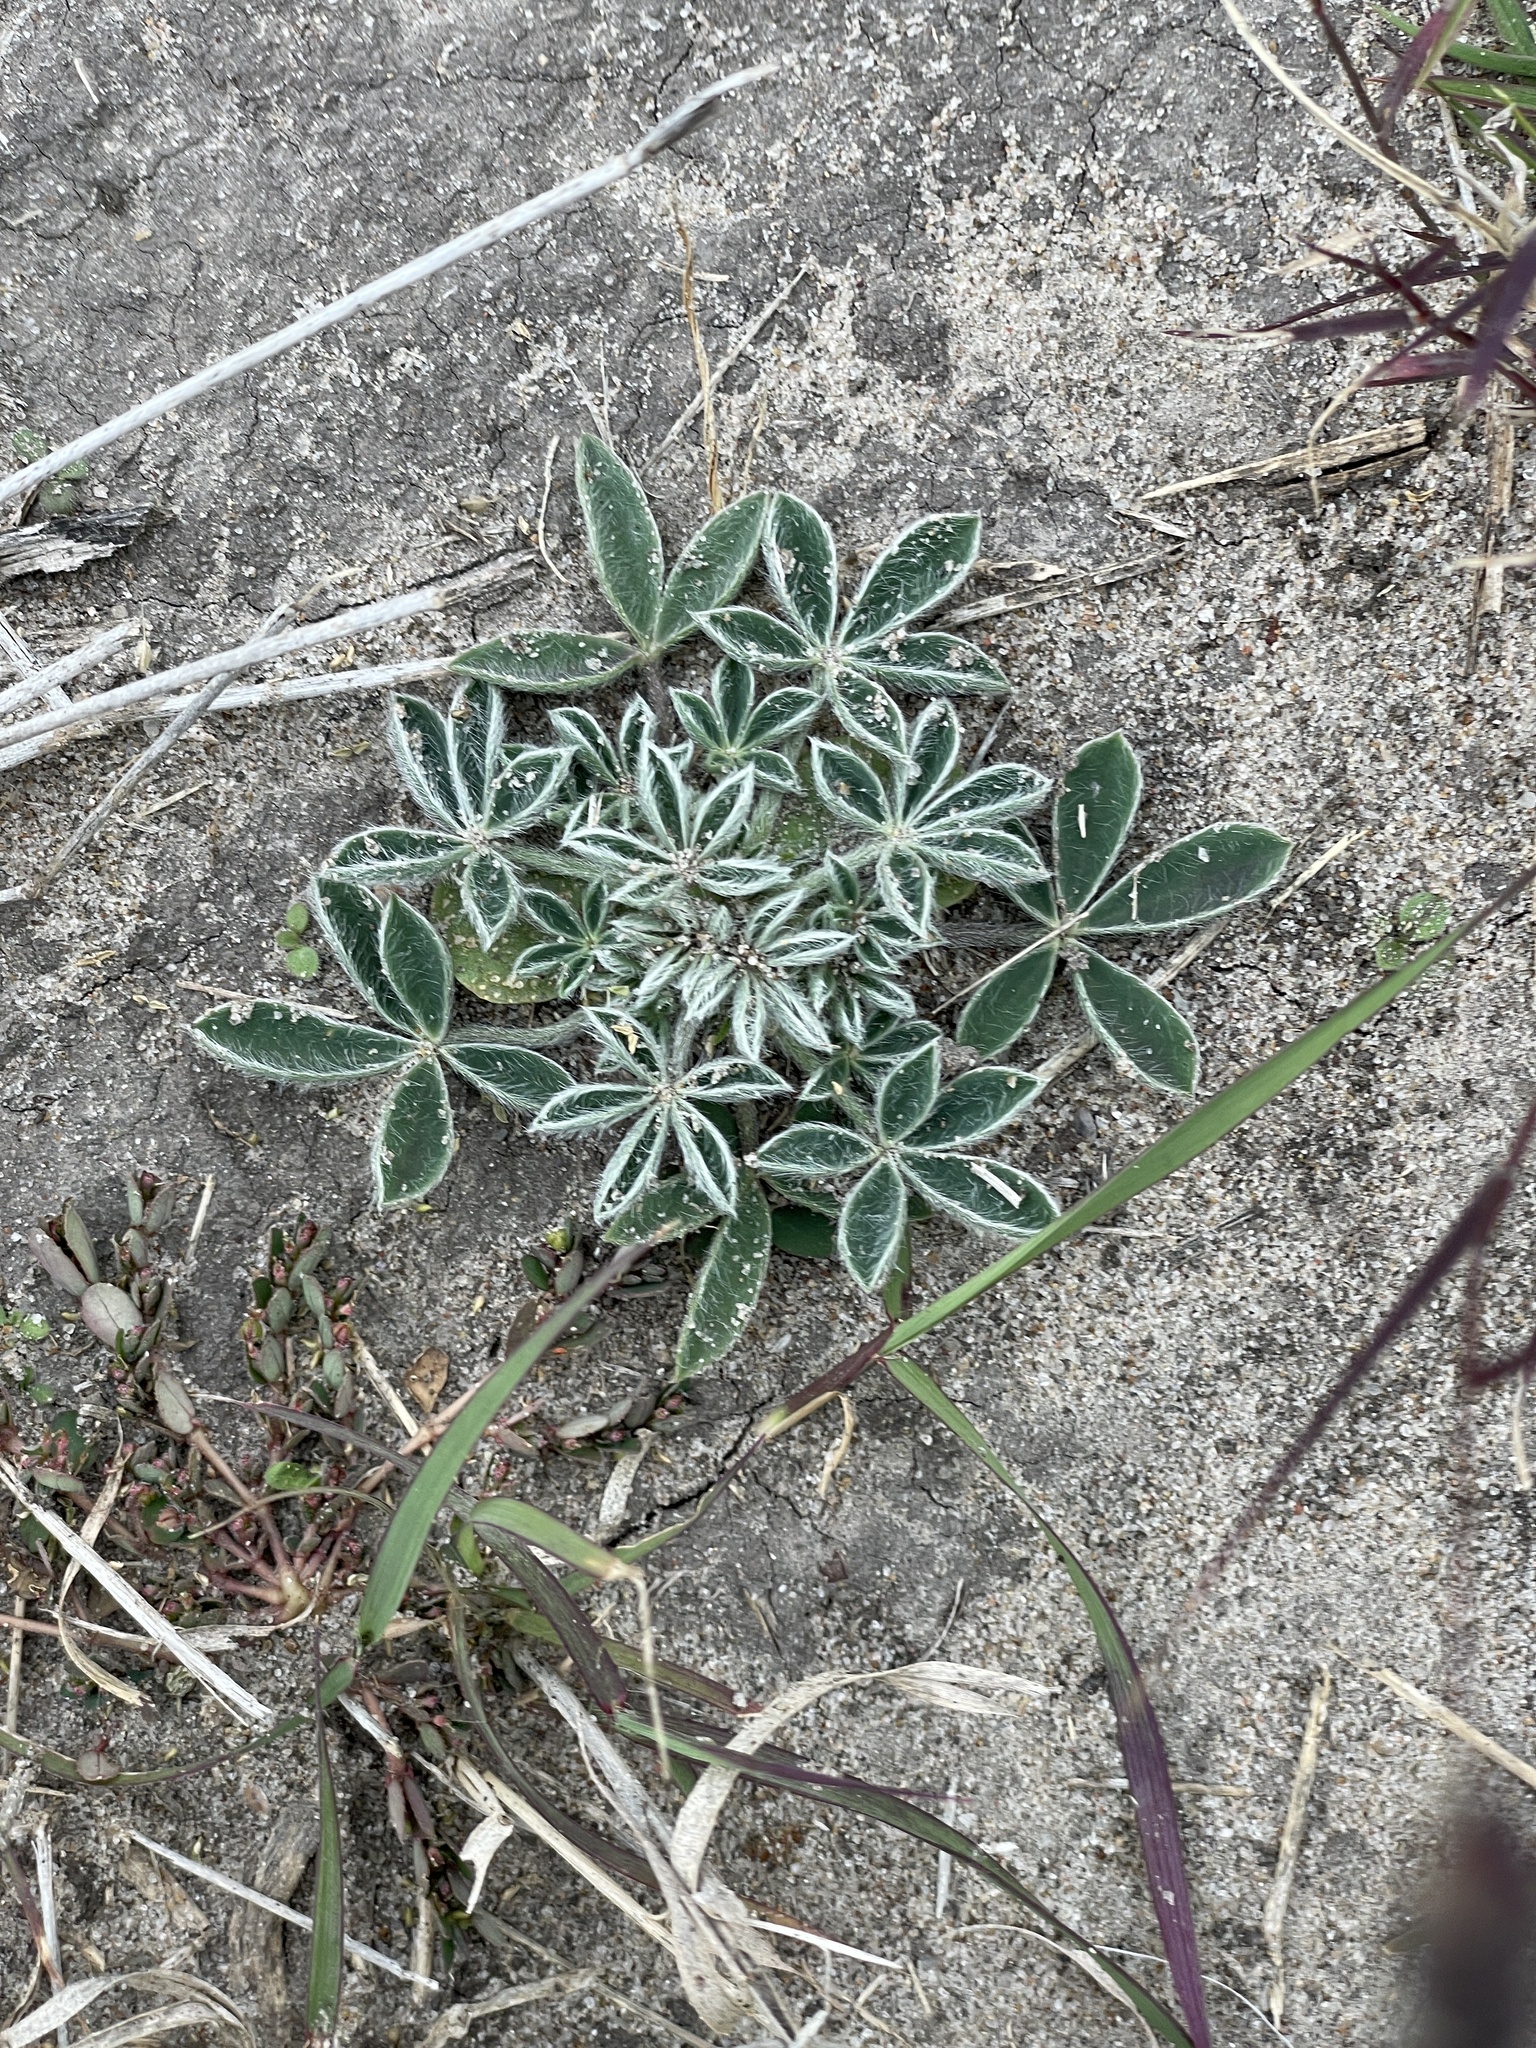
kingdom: Plantae
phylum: Tracheophyta
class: Magnoliopsida
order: Fabales
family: Fabaceae
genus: Lupinus
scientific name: Lupinus texensis
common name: Texas bluebonnet
